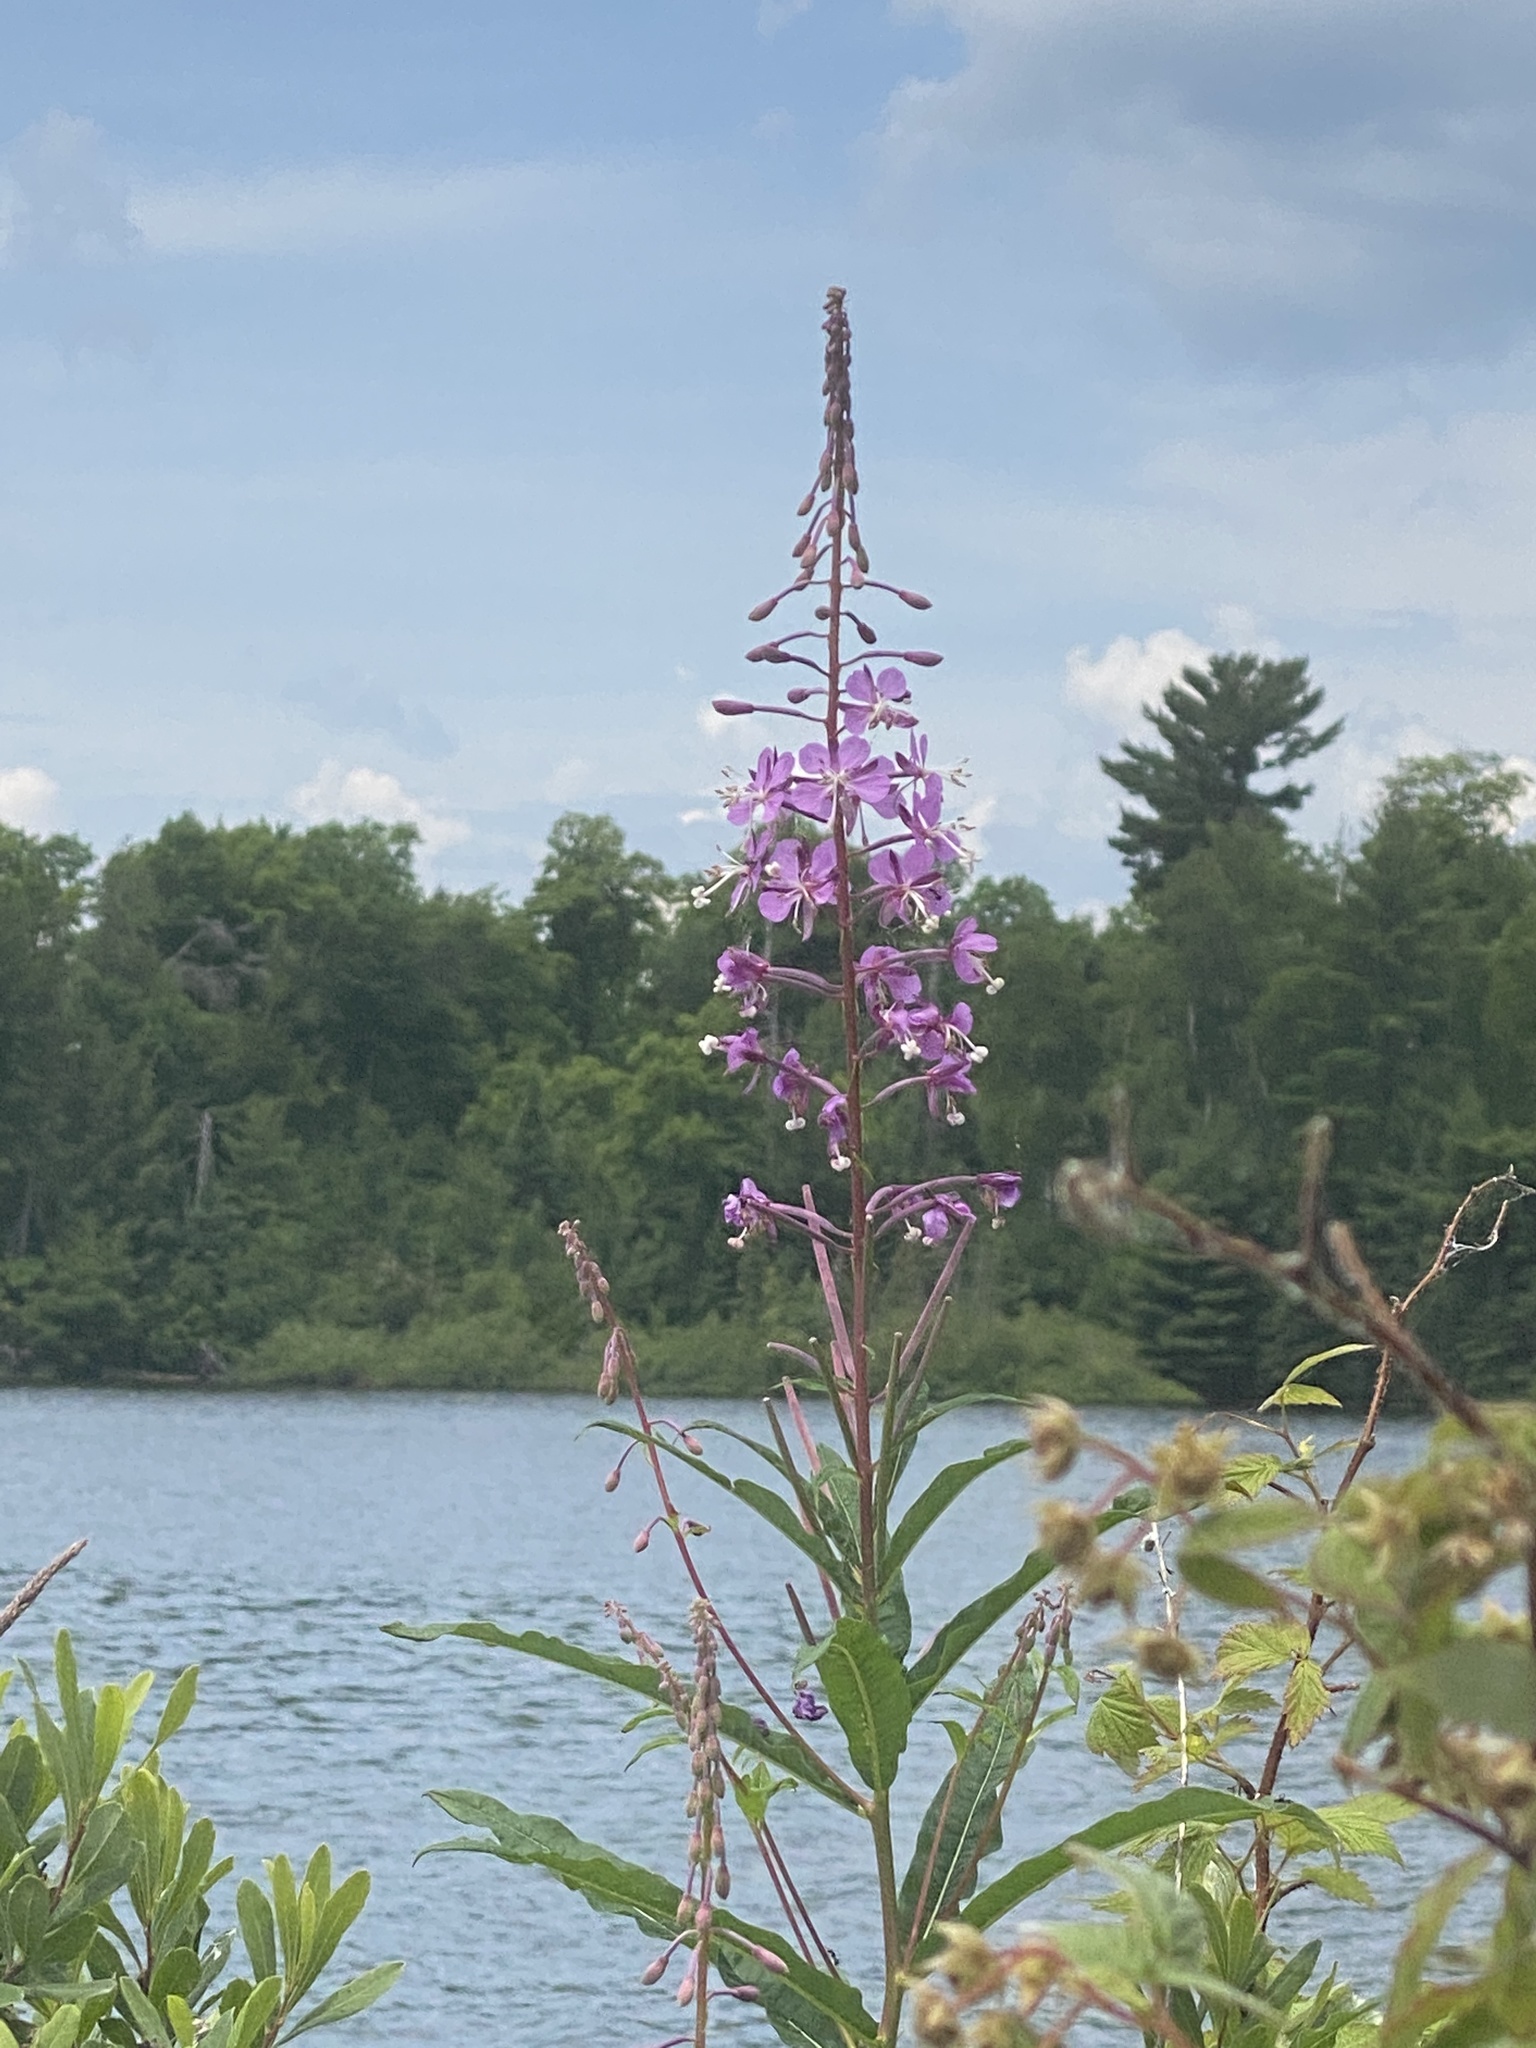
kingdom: Plantae
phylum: Tracheophyta
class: Magnoliopsida
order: Myrtales
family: Onagraceae
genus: Chamaenerion
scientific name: Chamaenerion angustifolium
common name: Fireweed
